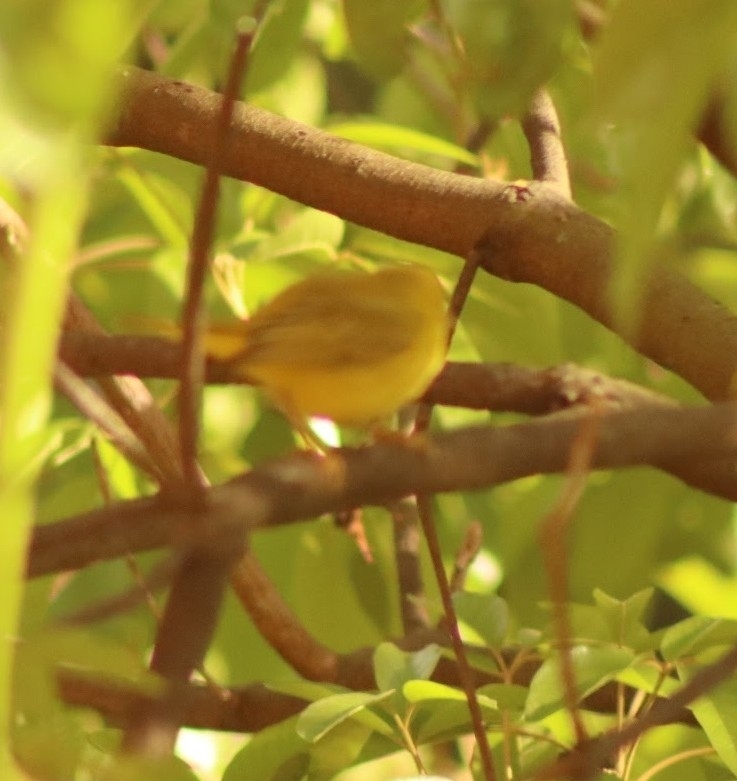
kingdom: Animalia
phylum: Chordata
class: Aves
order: Passeriformes
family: Parulidae
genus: Setophaga
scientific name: Setophaga petechia
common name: Yellow warbler
